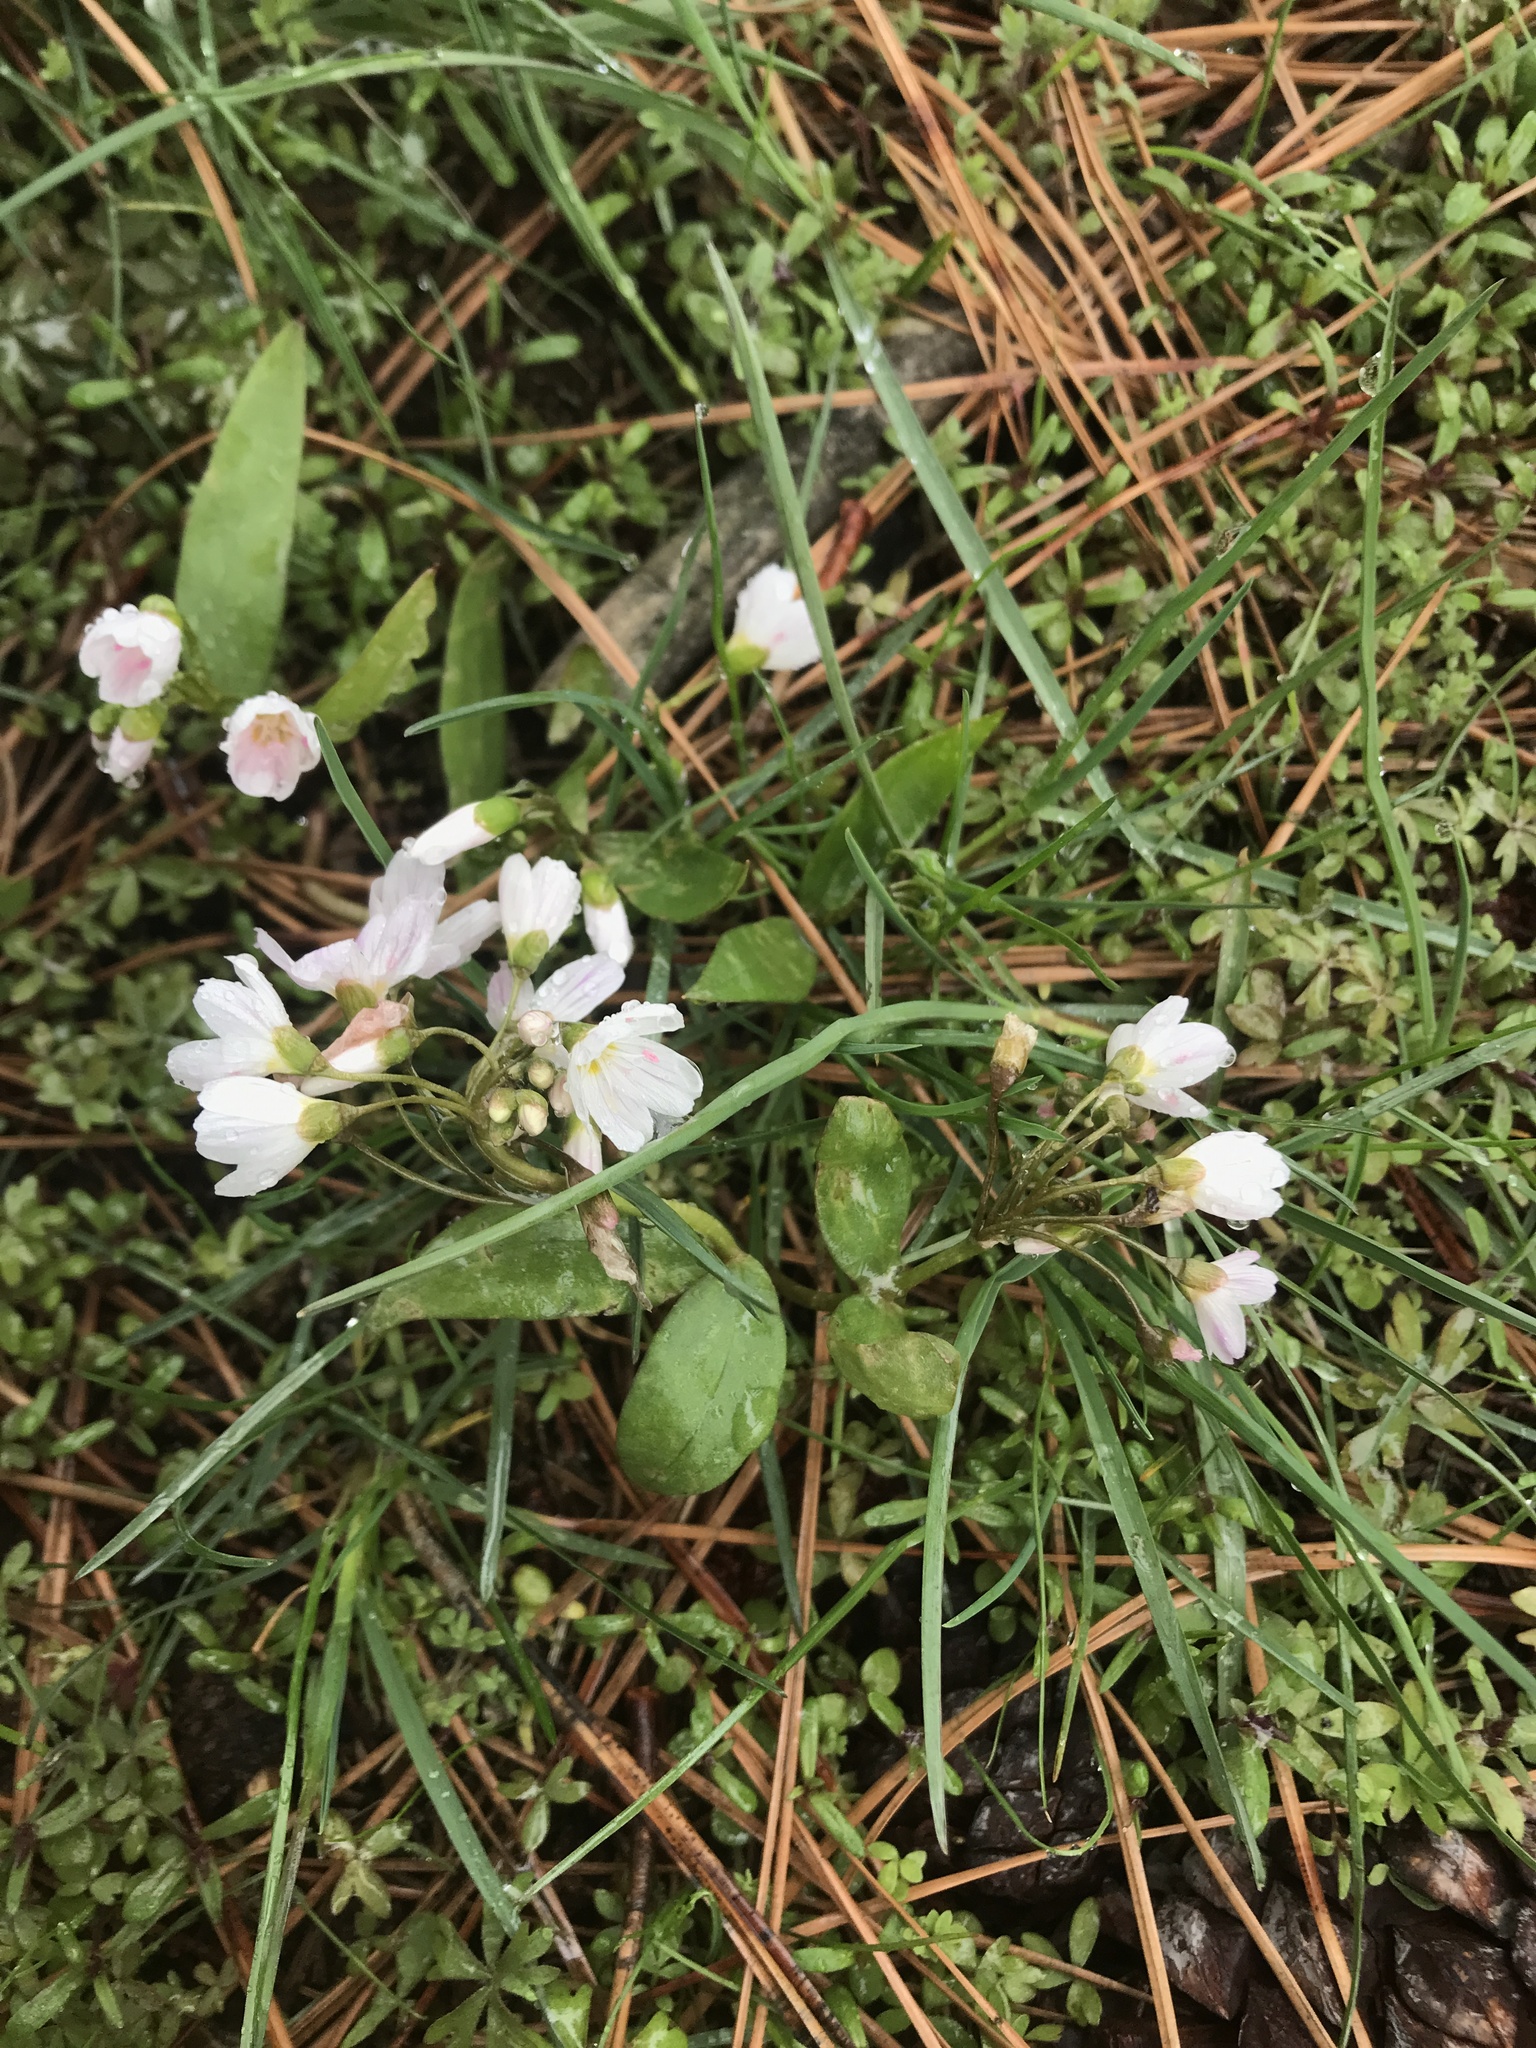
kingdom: Plantae
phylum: Tracheophyta
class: Magnoliopsida
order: Caryophyllales
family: Montiaceae
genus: Claytonia
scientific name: Claytonia lanceolata
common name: Western spring-beauty
